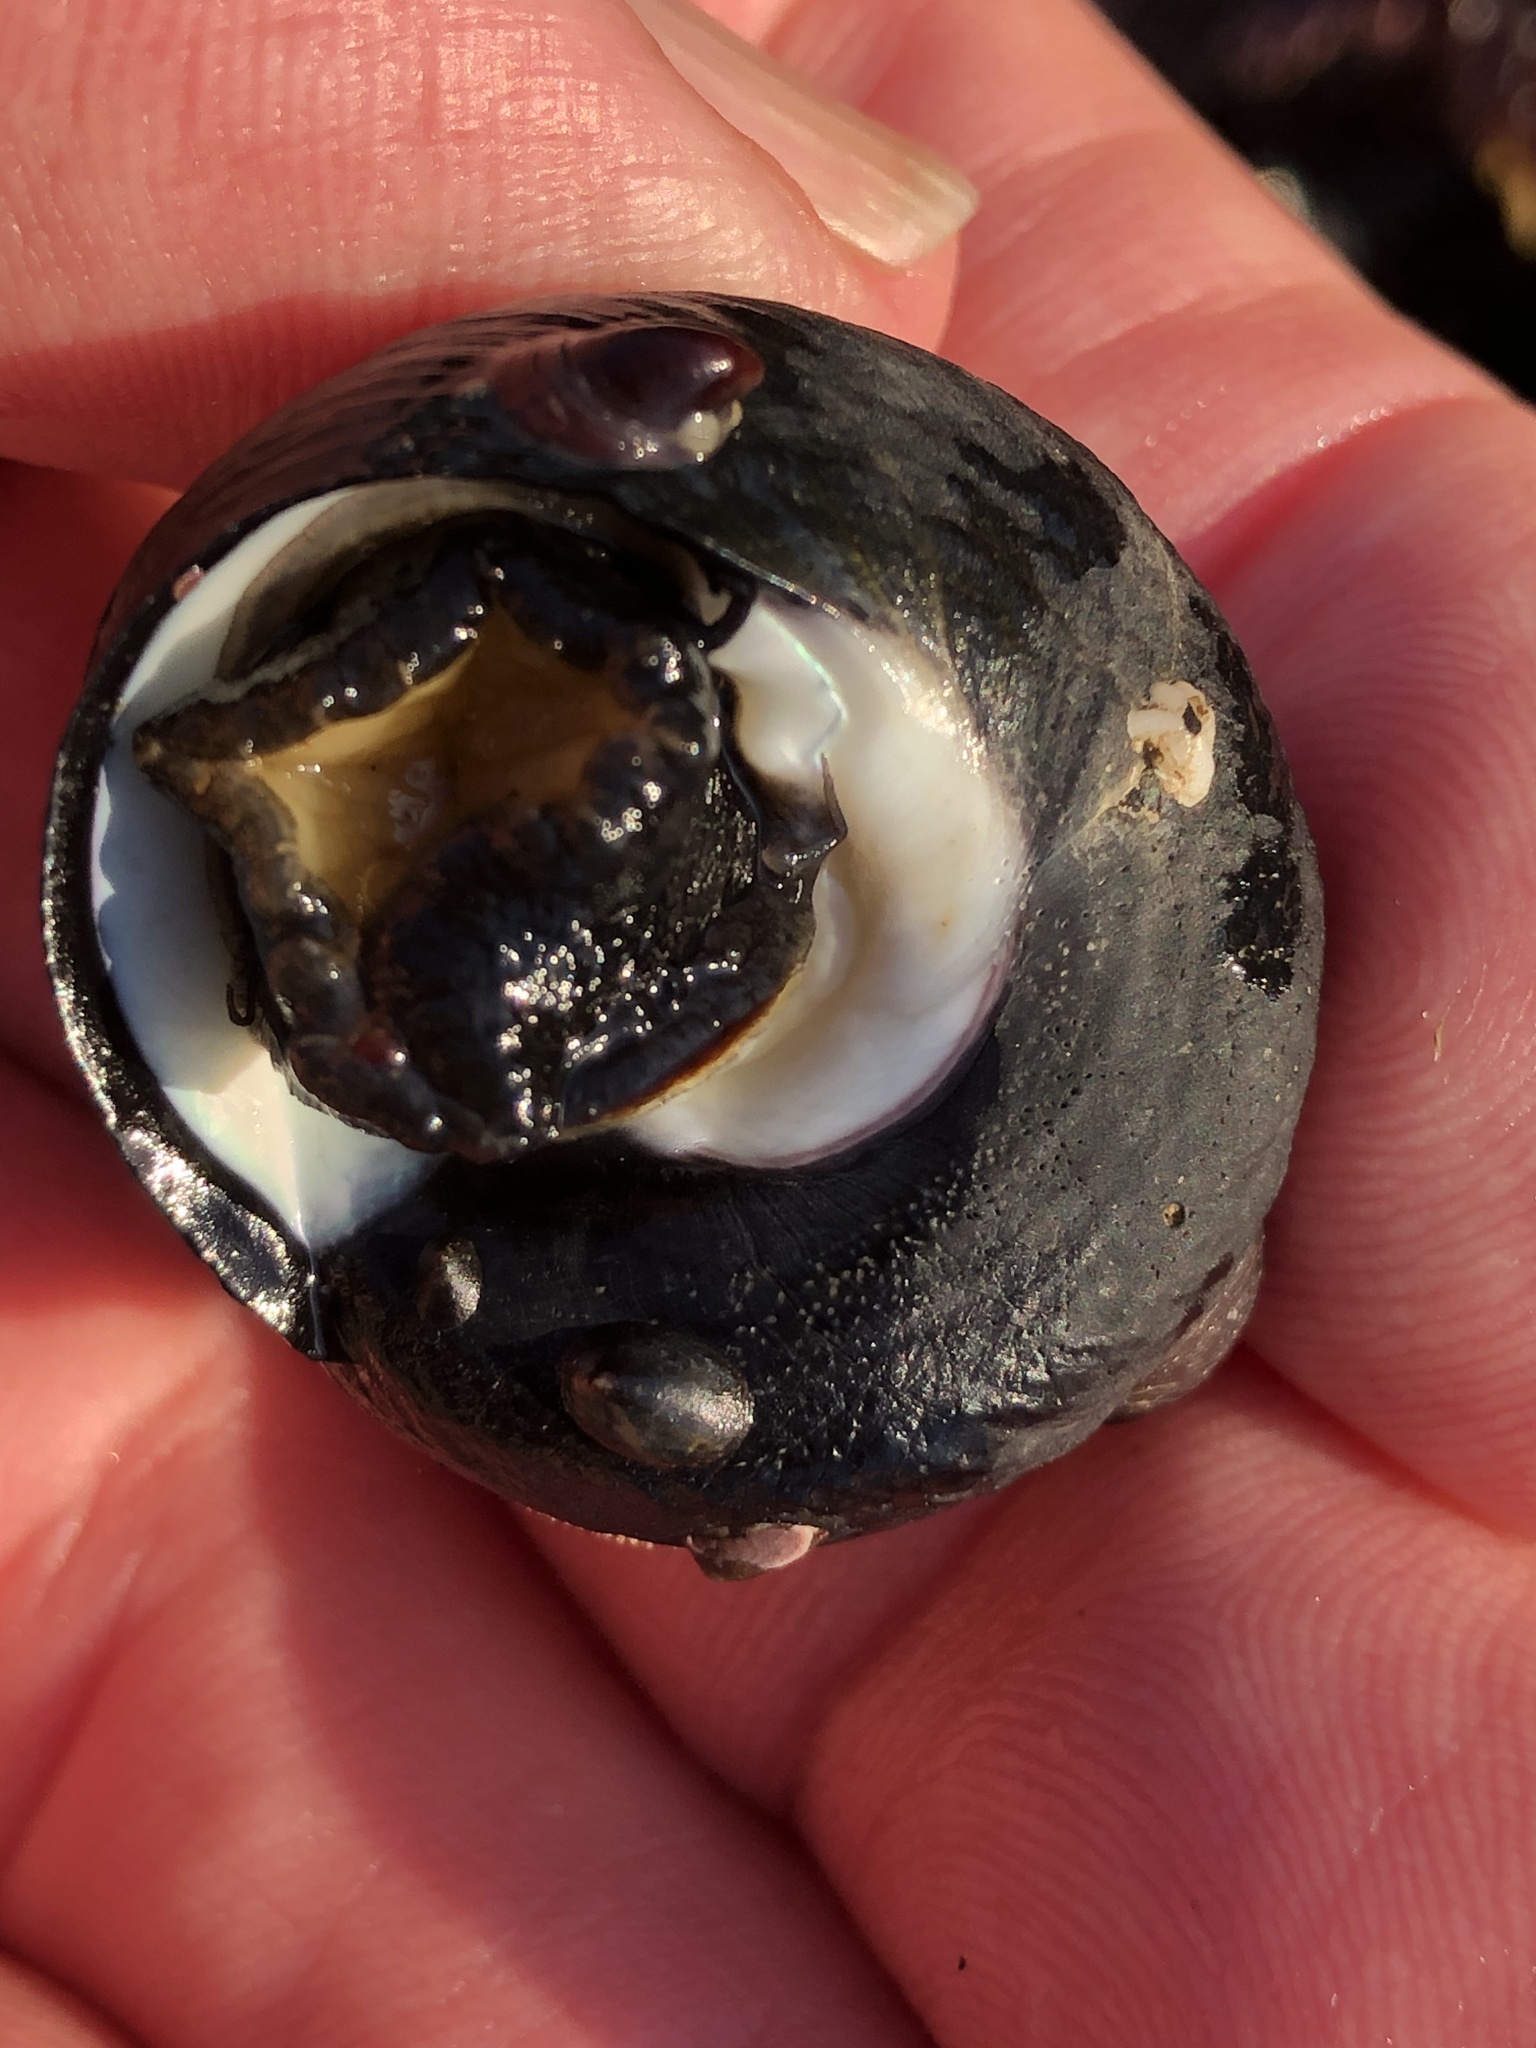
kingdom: Animalia
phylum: Mollusca
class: Gastropoda
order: Trochida
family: Tegulidae
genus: Tegula
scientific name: Tegula funebralis
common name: Black tegula
